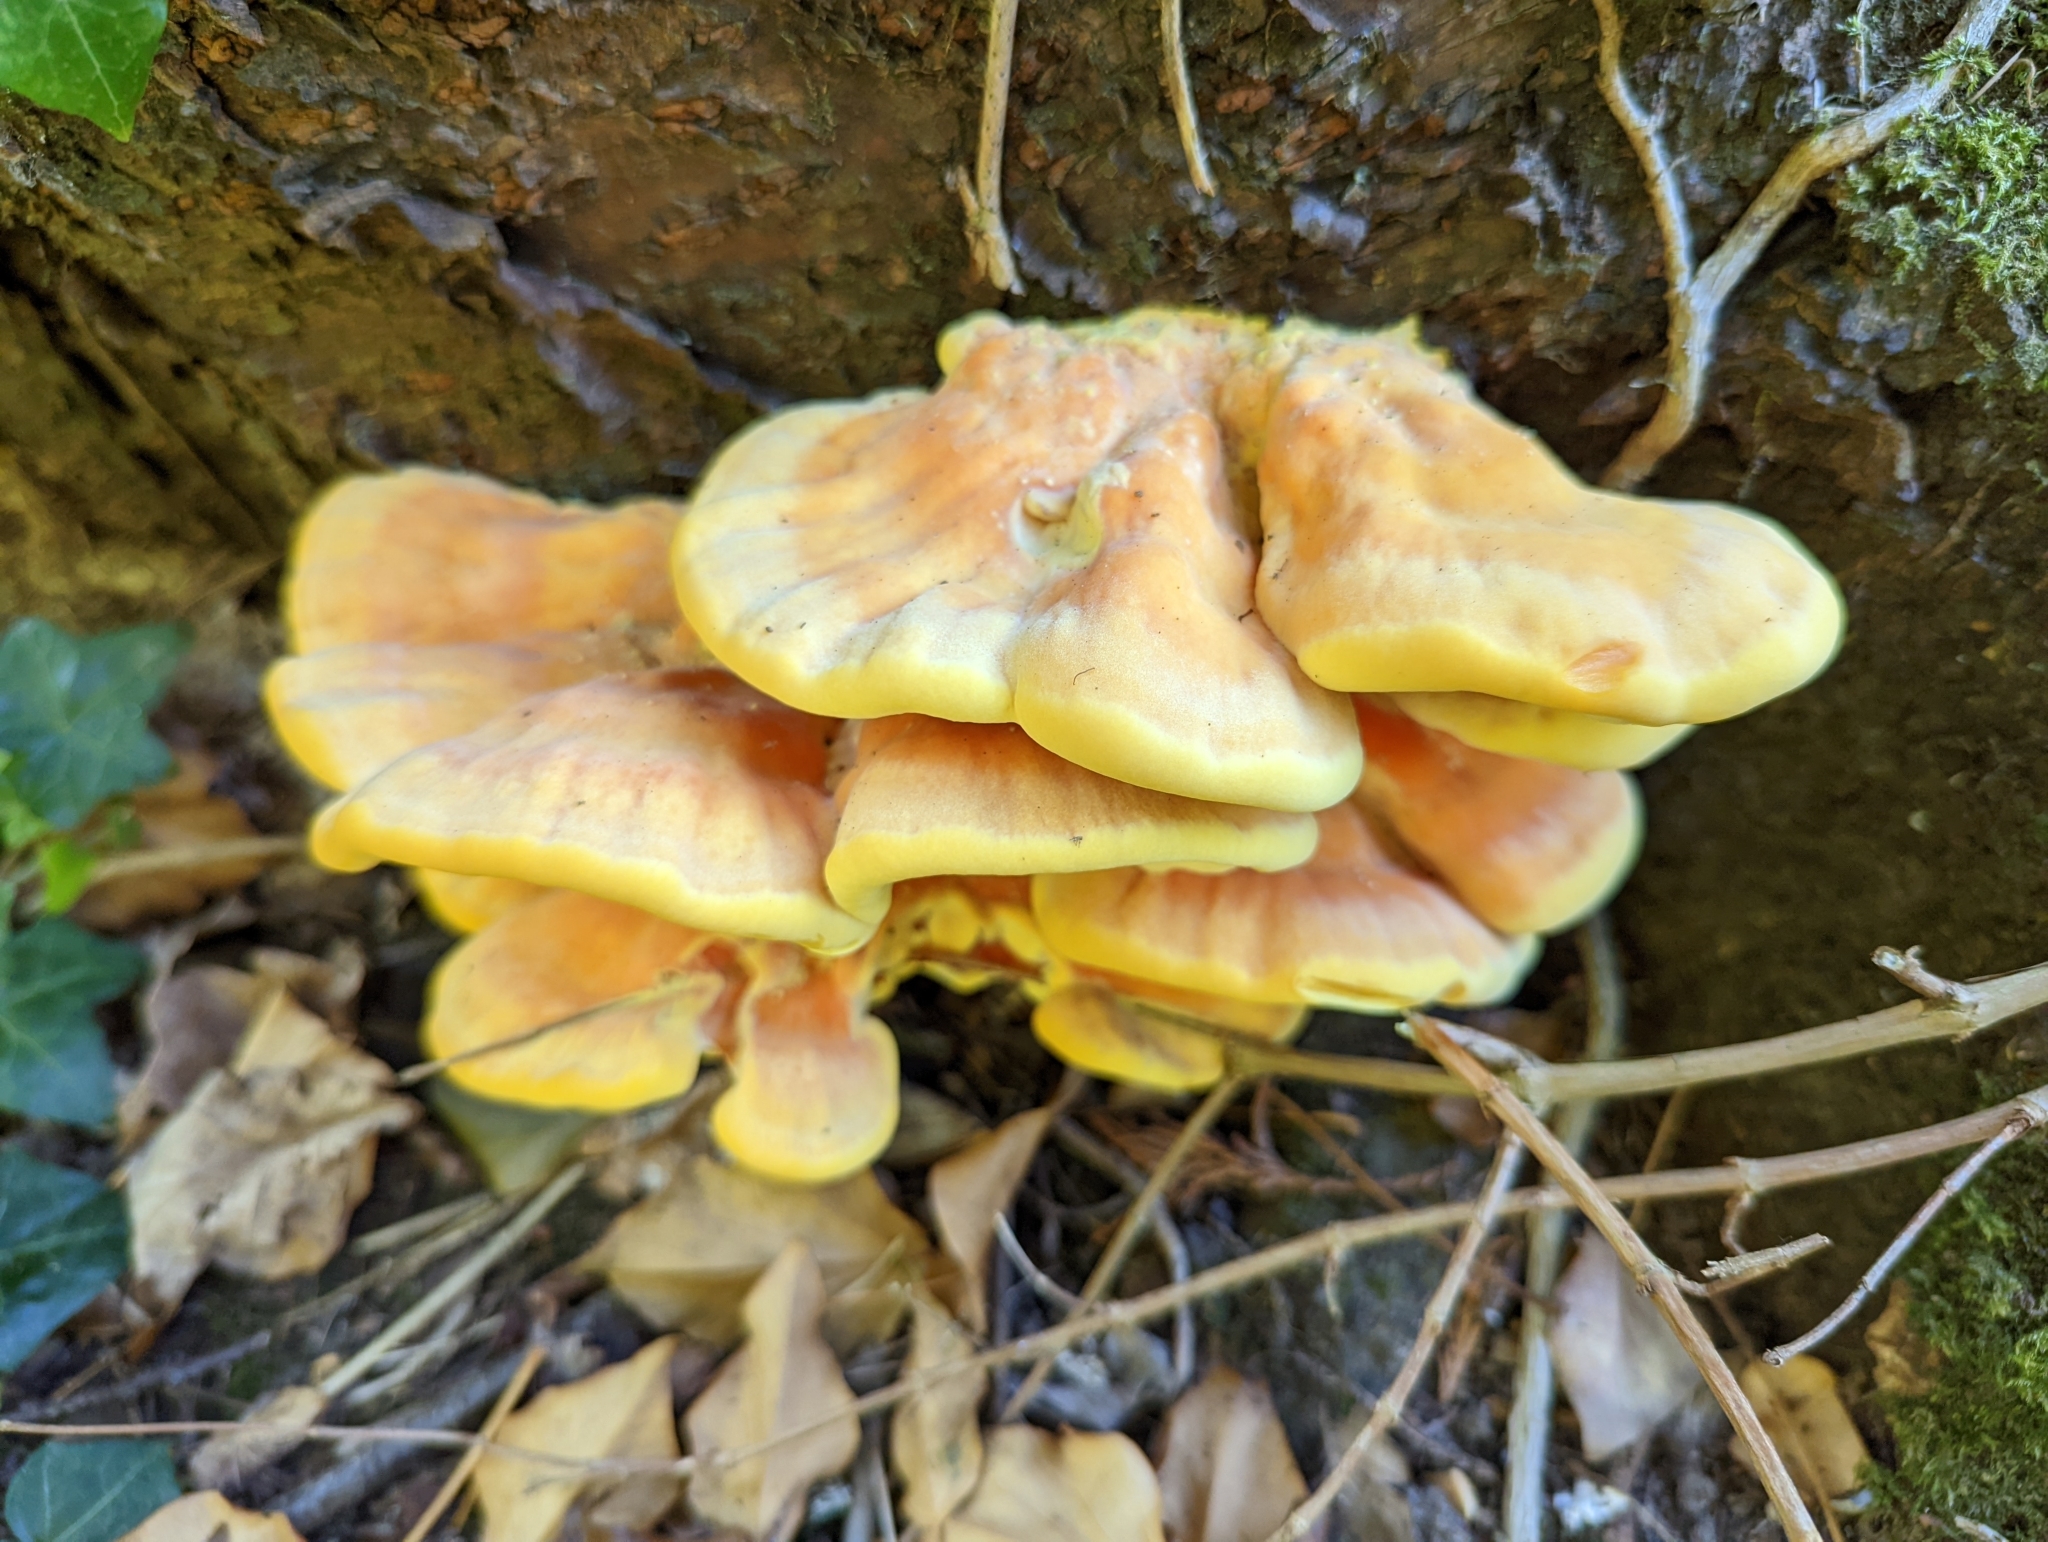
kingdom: Fungi
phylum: Basidiomycota
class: Agaricomycetes
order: Polyporales
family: Laetiporaceae
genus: Laetiporus
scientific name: Laetiporus sulphureus
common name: Chicken of the woods
